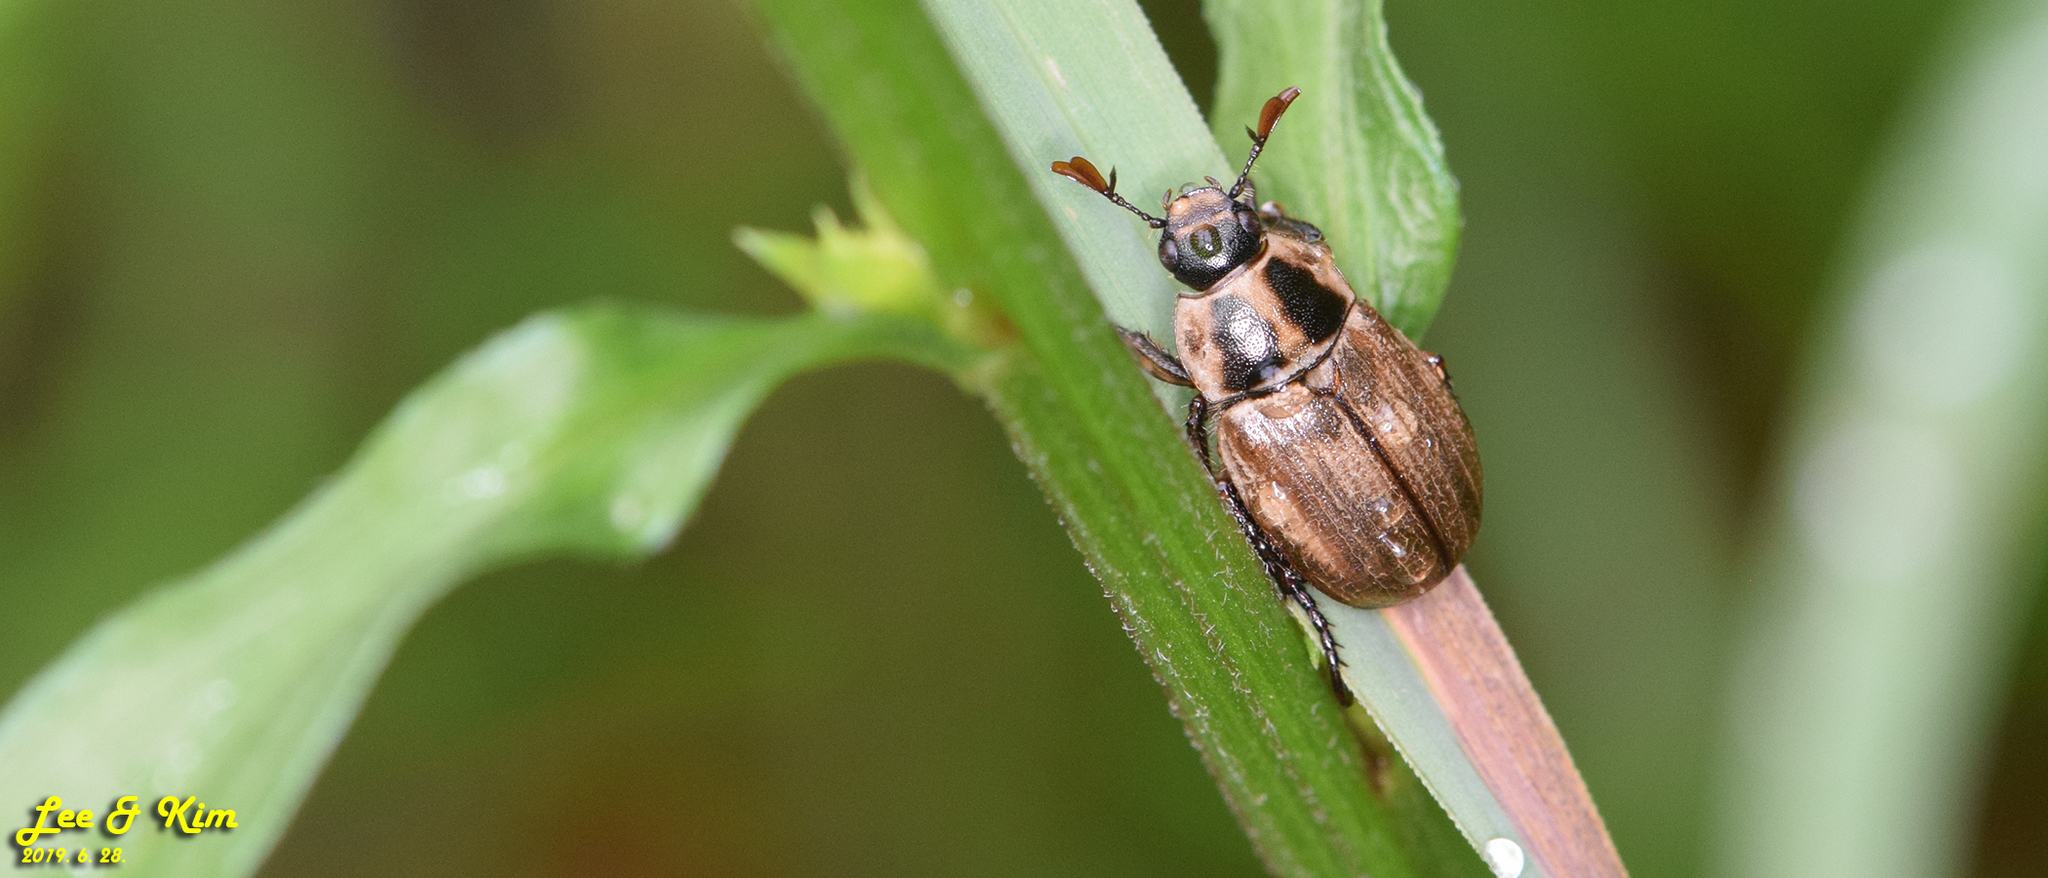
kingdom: Animalia
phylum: Arthropoda
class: Insecta
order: Coleoptera
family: Scarabaeidae
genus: Exomala
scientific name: Exomala orientalis
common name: Oriental beetle
